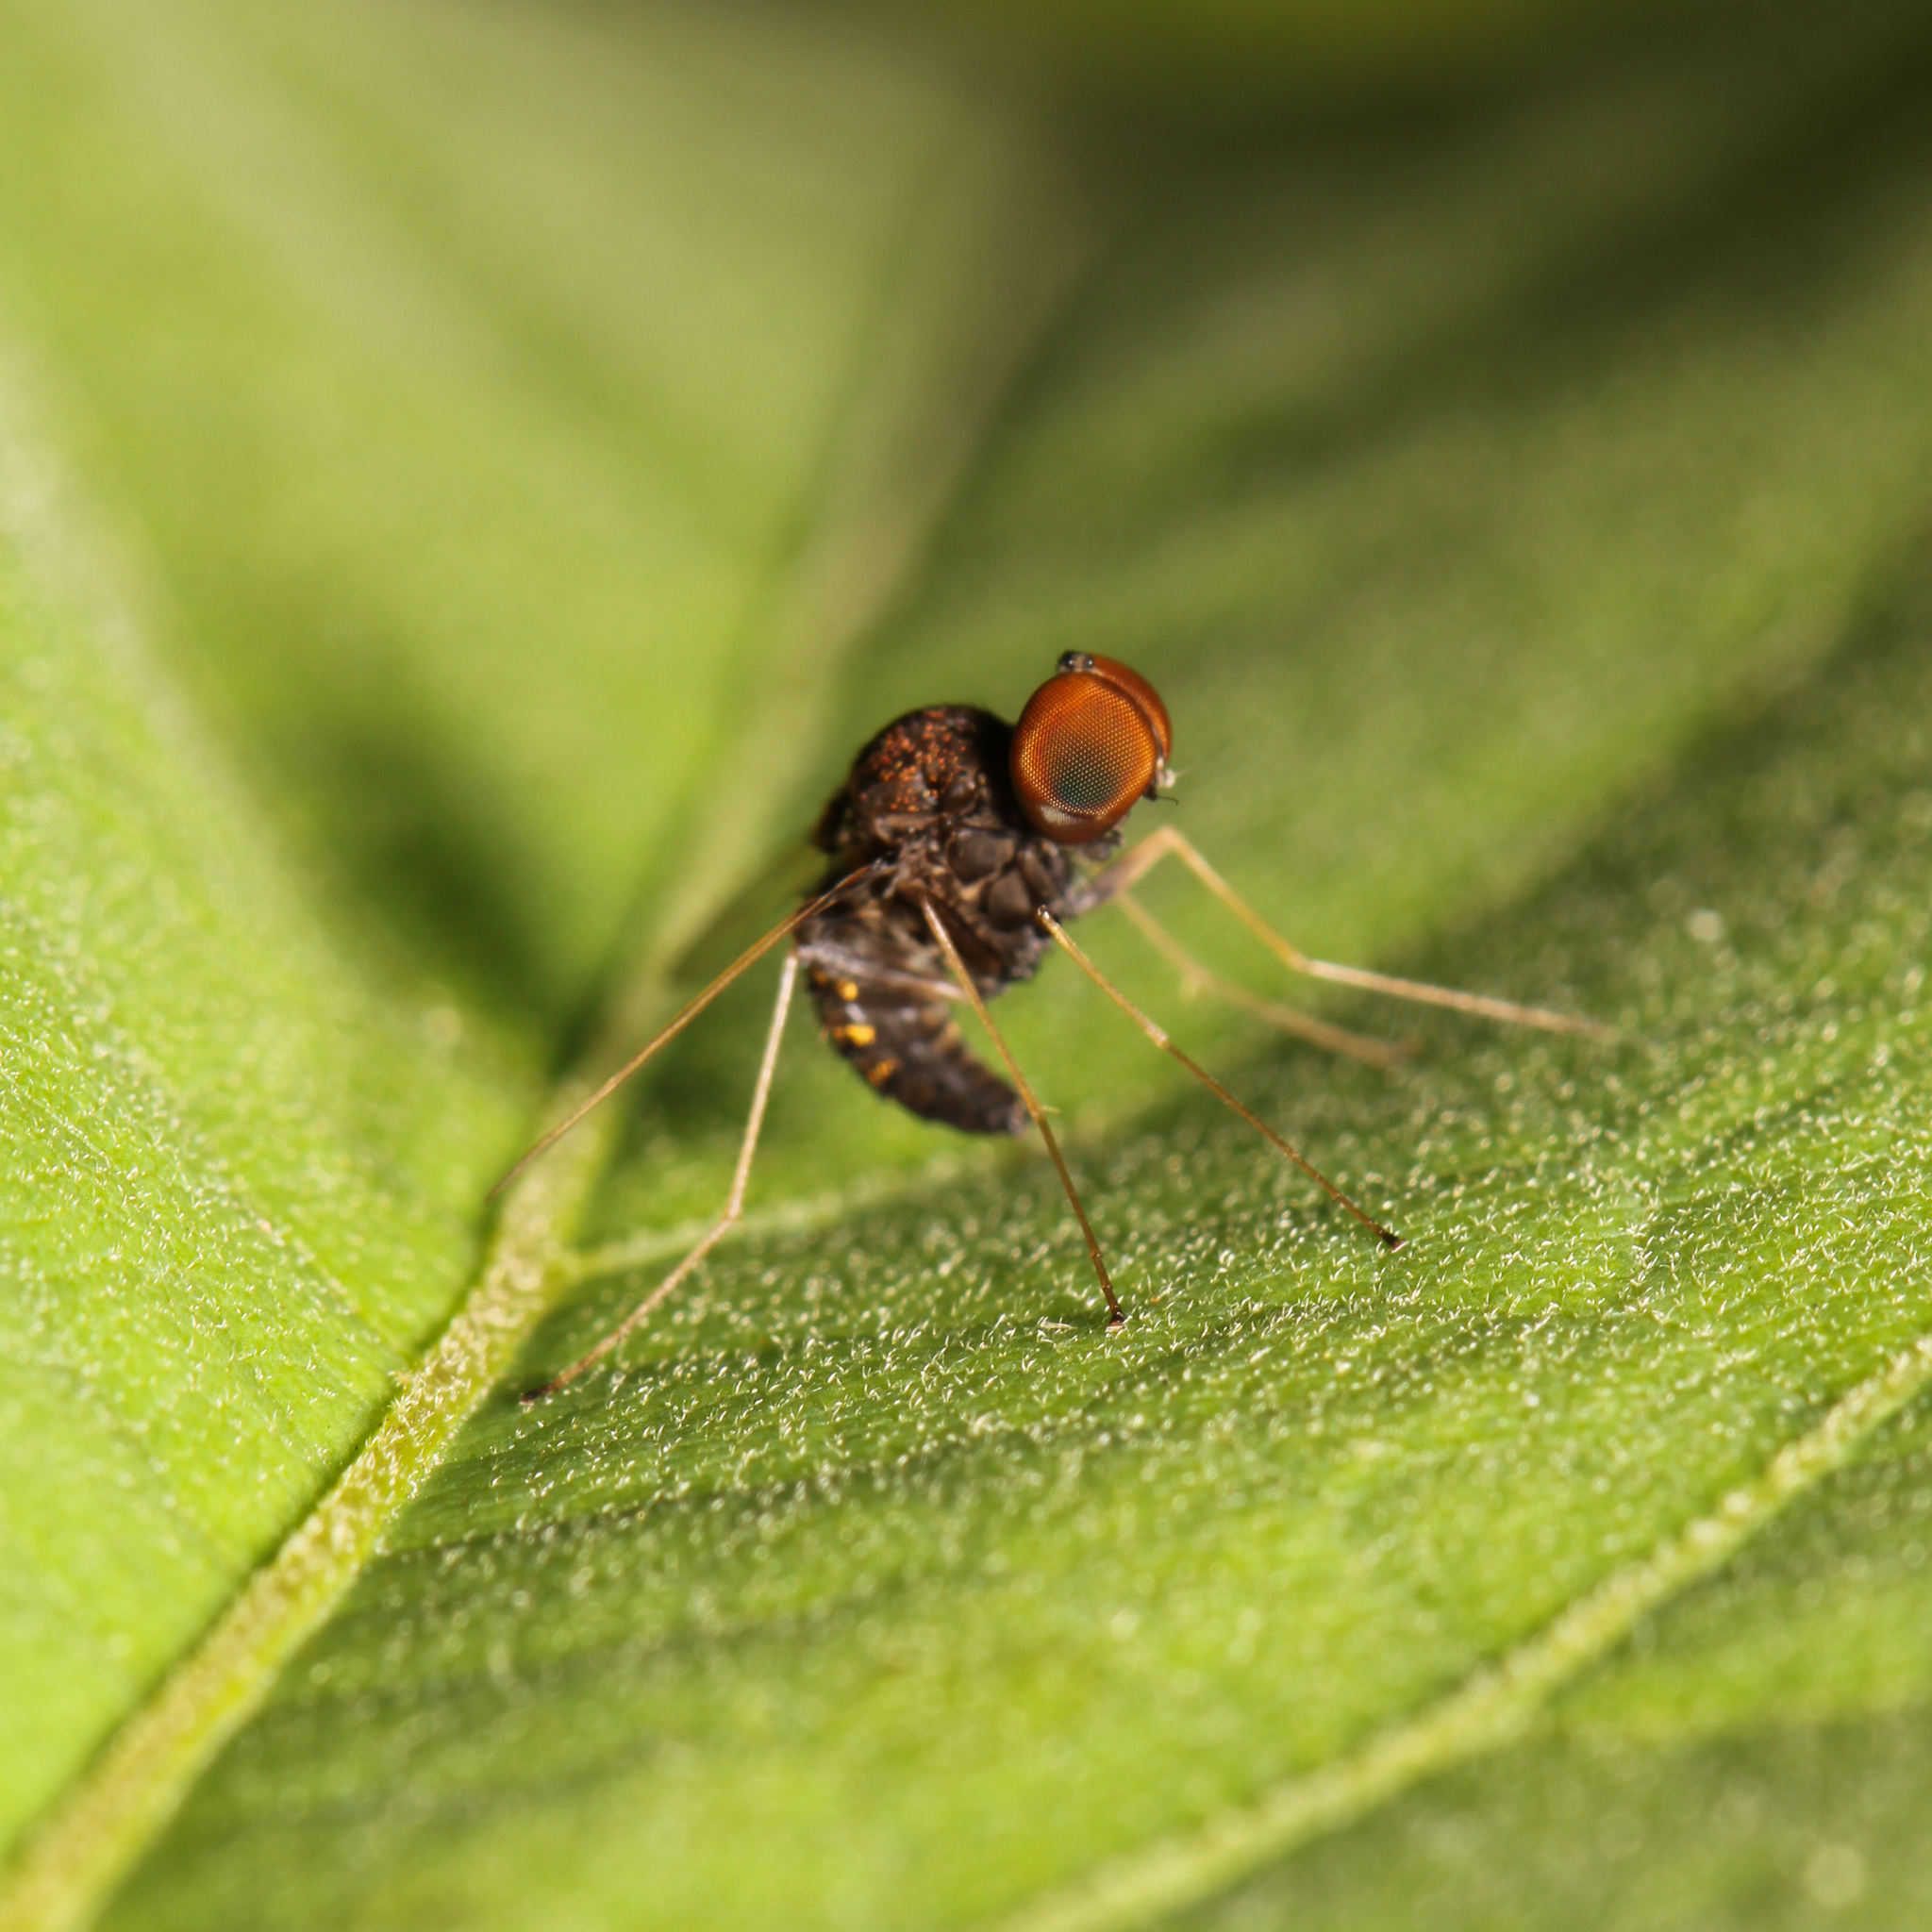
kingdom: Animalia
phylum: Arthropoda
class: Insecta
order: Diptera
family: Rhagionidae
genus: Chrysopilus
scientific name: Chrysopilus basilaris
